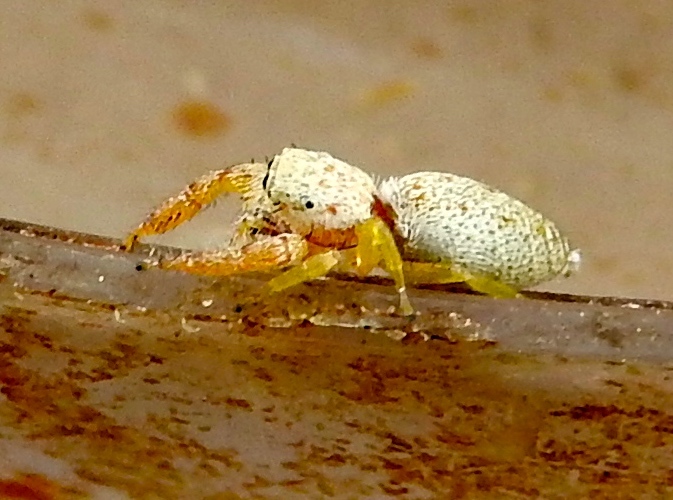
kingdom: Animalia
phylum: Arthropoda
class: Arachnida
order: Araneae
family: Salticidae
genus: Hentzia
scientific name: Hentzia
